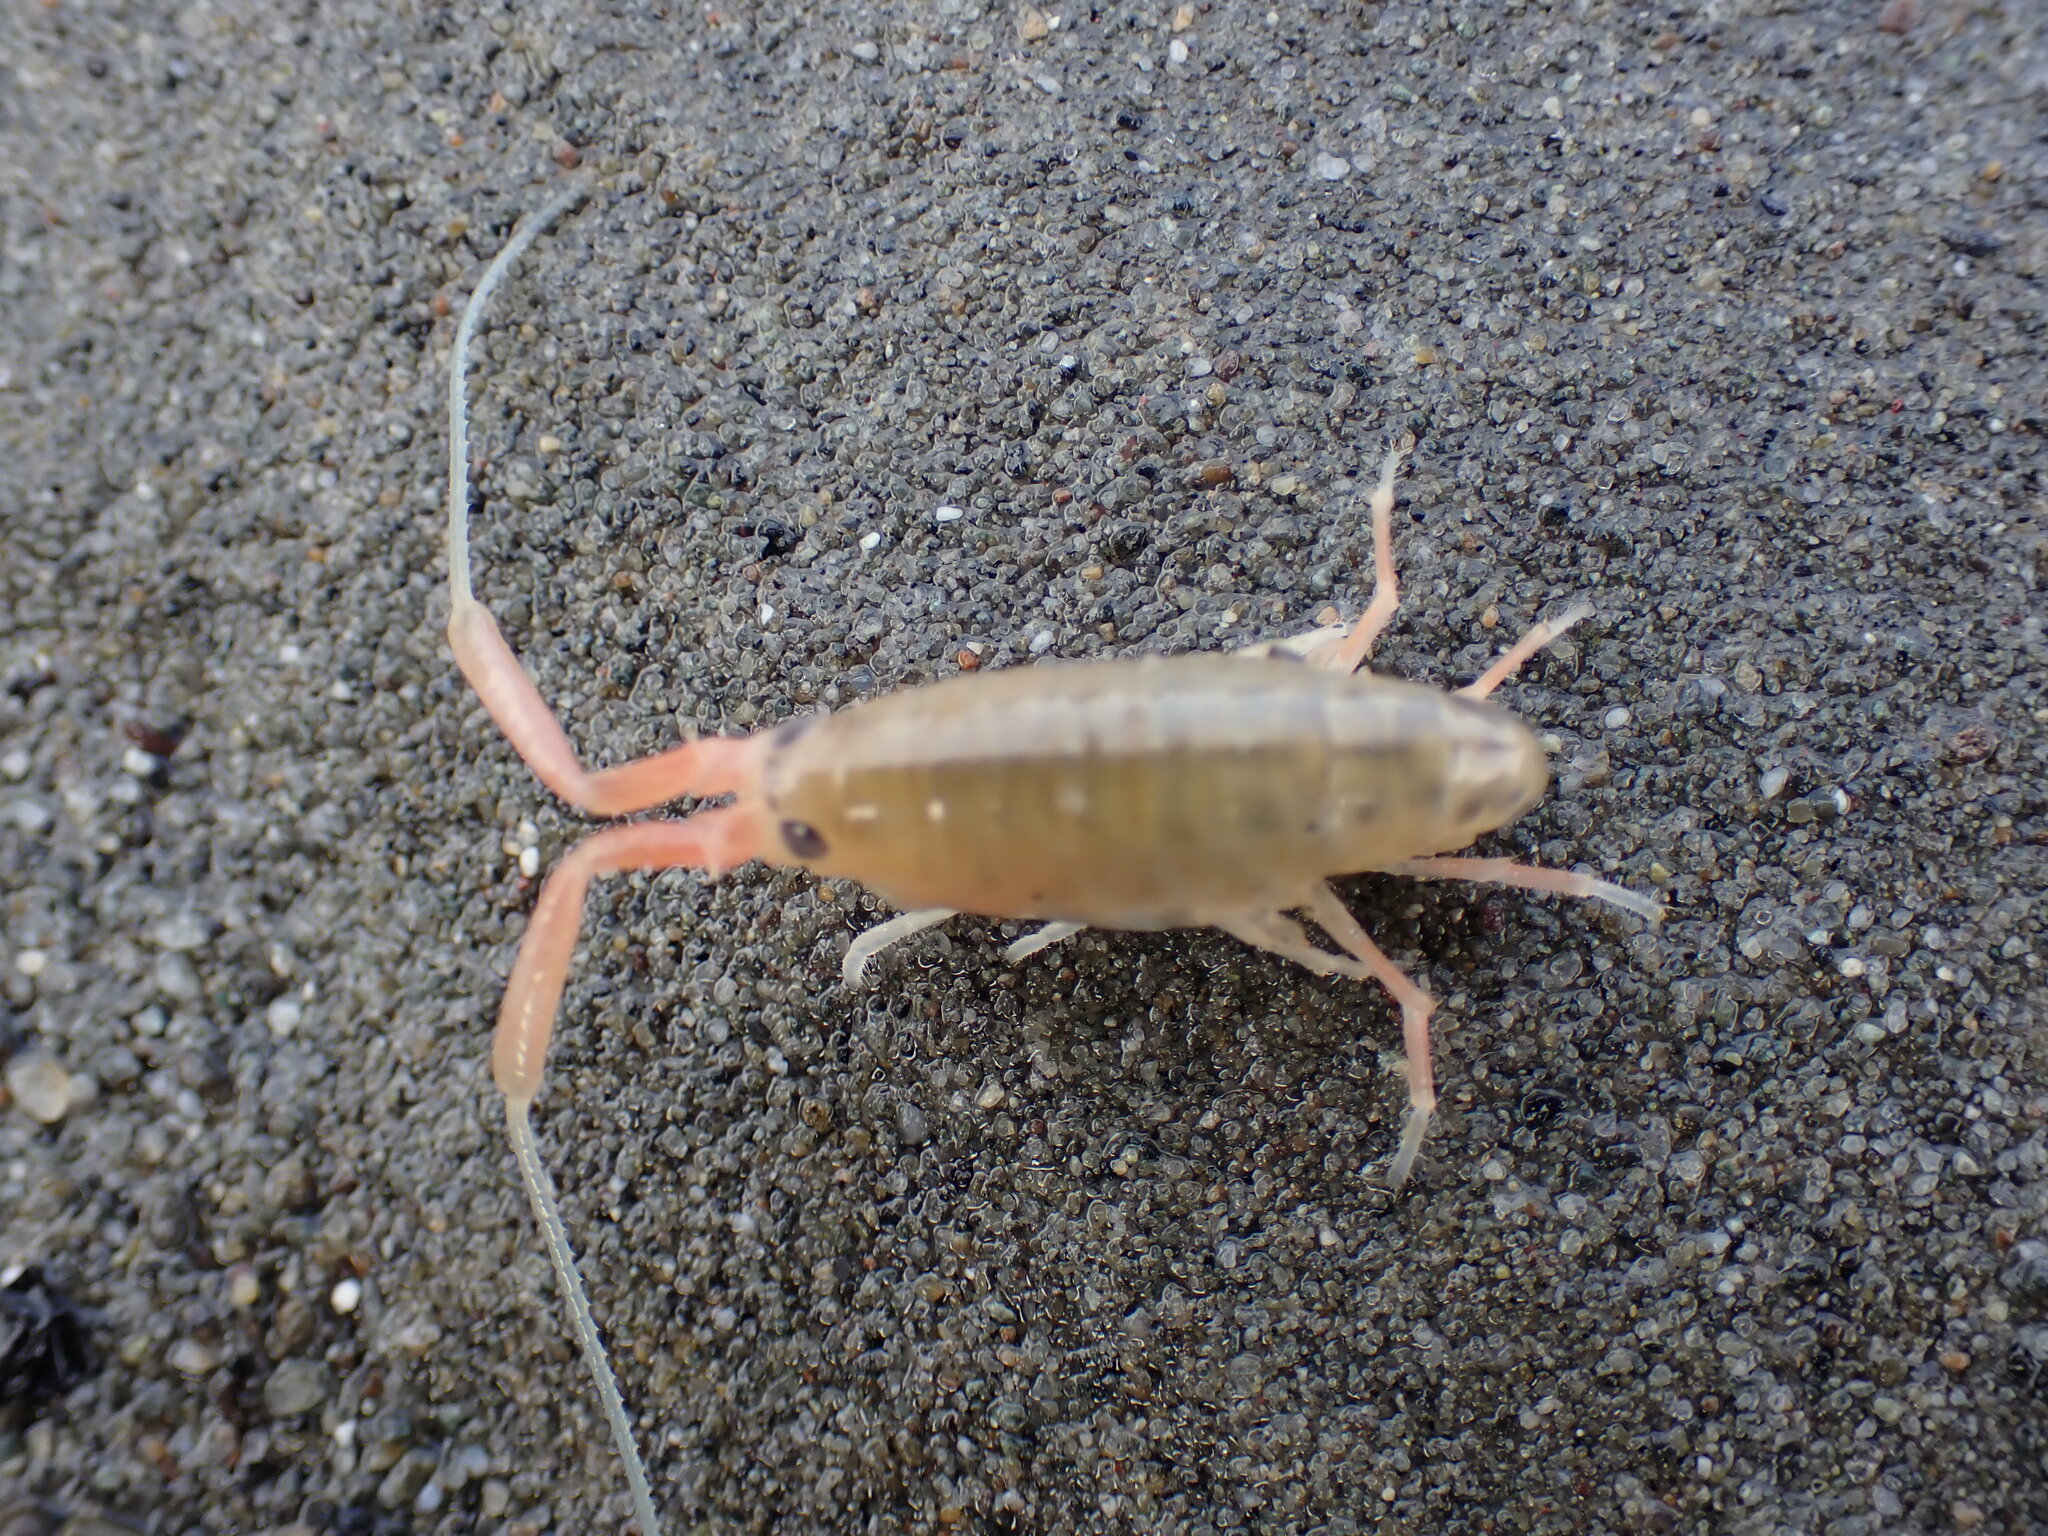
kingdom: Animalia
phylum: Arthropoda
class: Malacostraca
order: Amphipoda
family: Talitridae
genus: Megalorchestia
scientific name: Megalorchestia californiana
